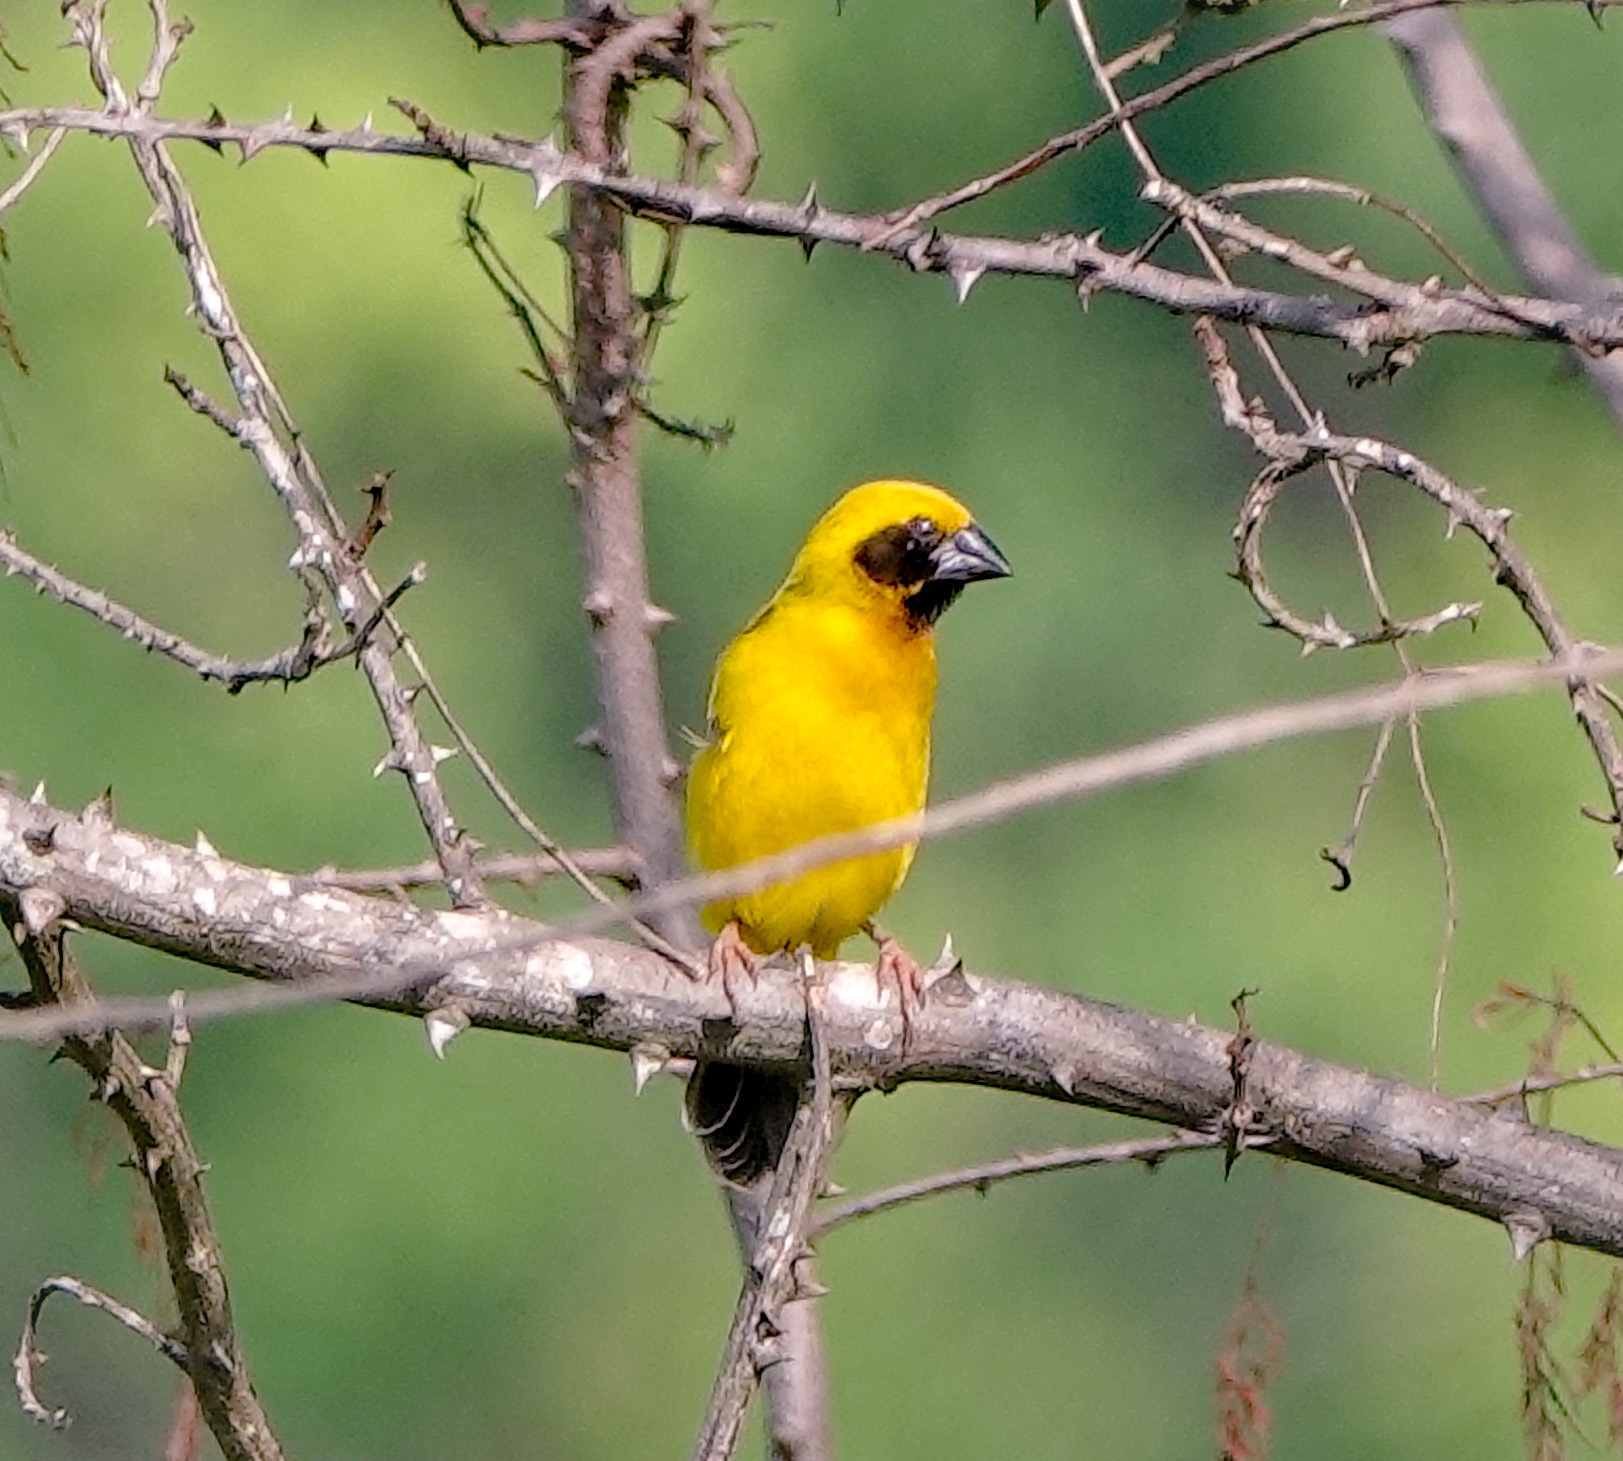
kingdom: Animalia
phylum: Chordata
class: Aves
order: Passeriformes
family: Ploceidae
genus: Ploceus
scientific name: Ploceus hypoxanthus
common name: Asian golden weaver
